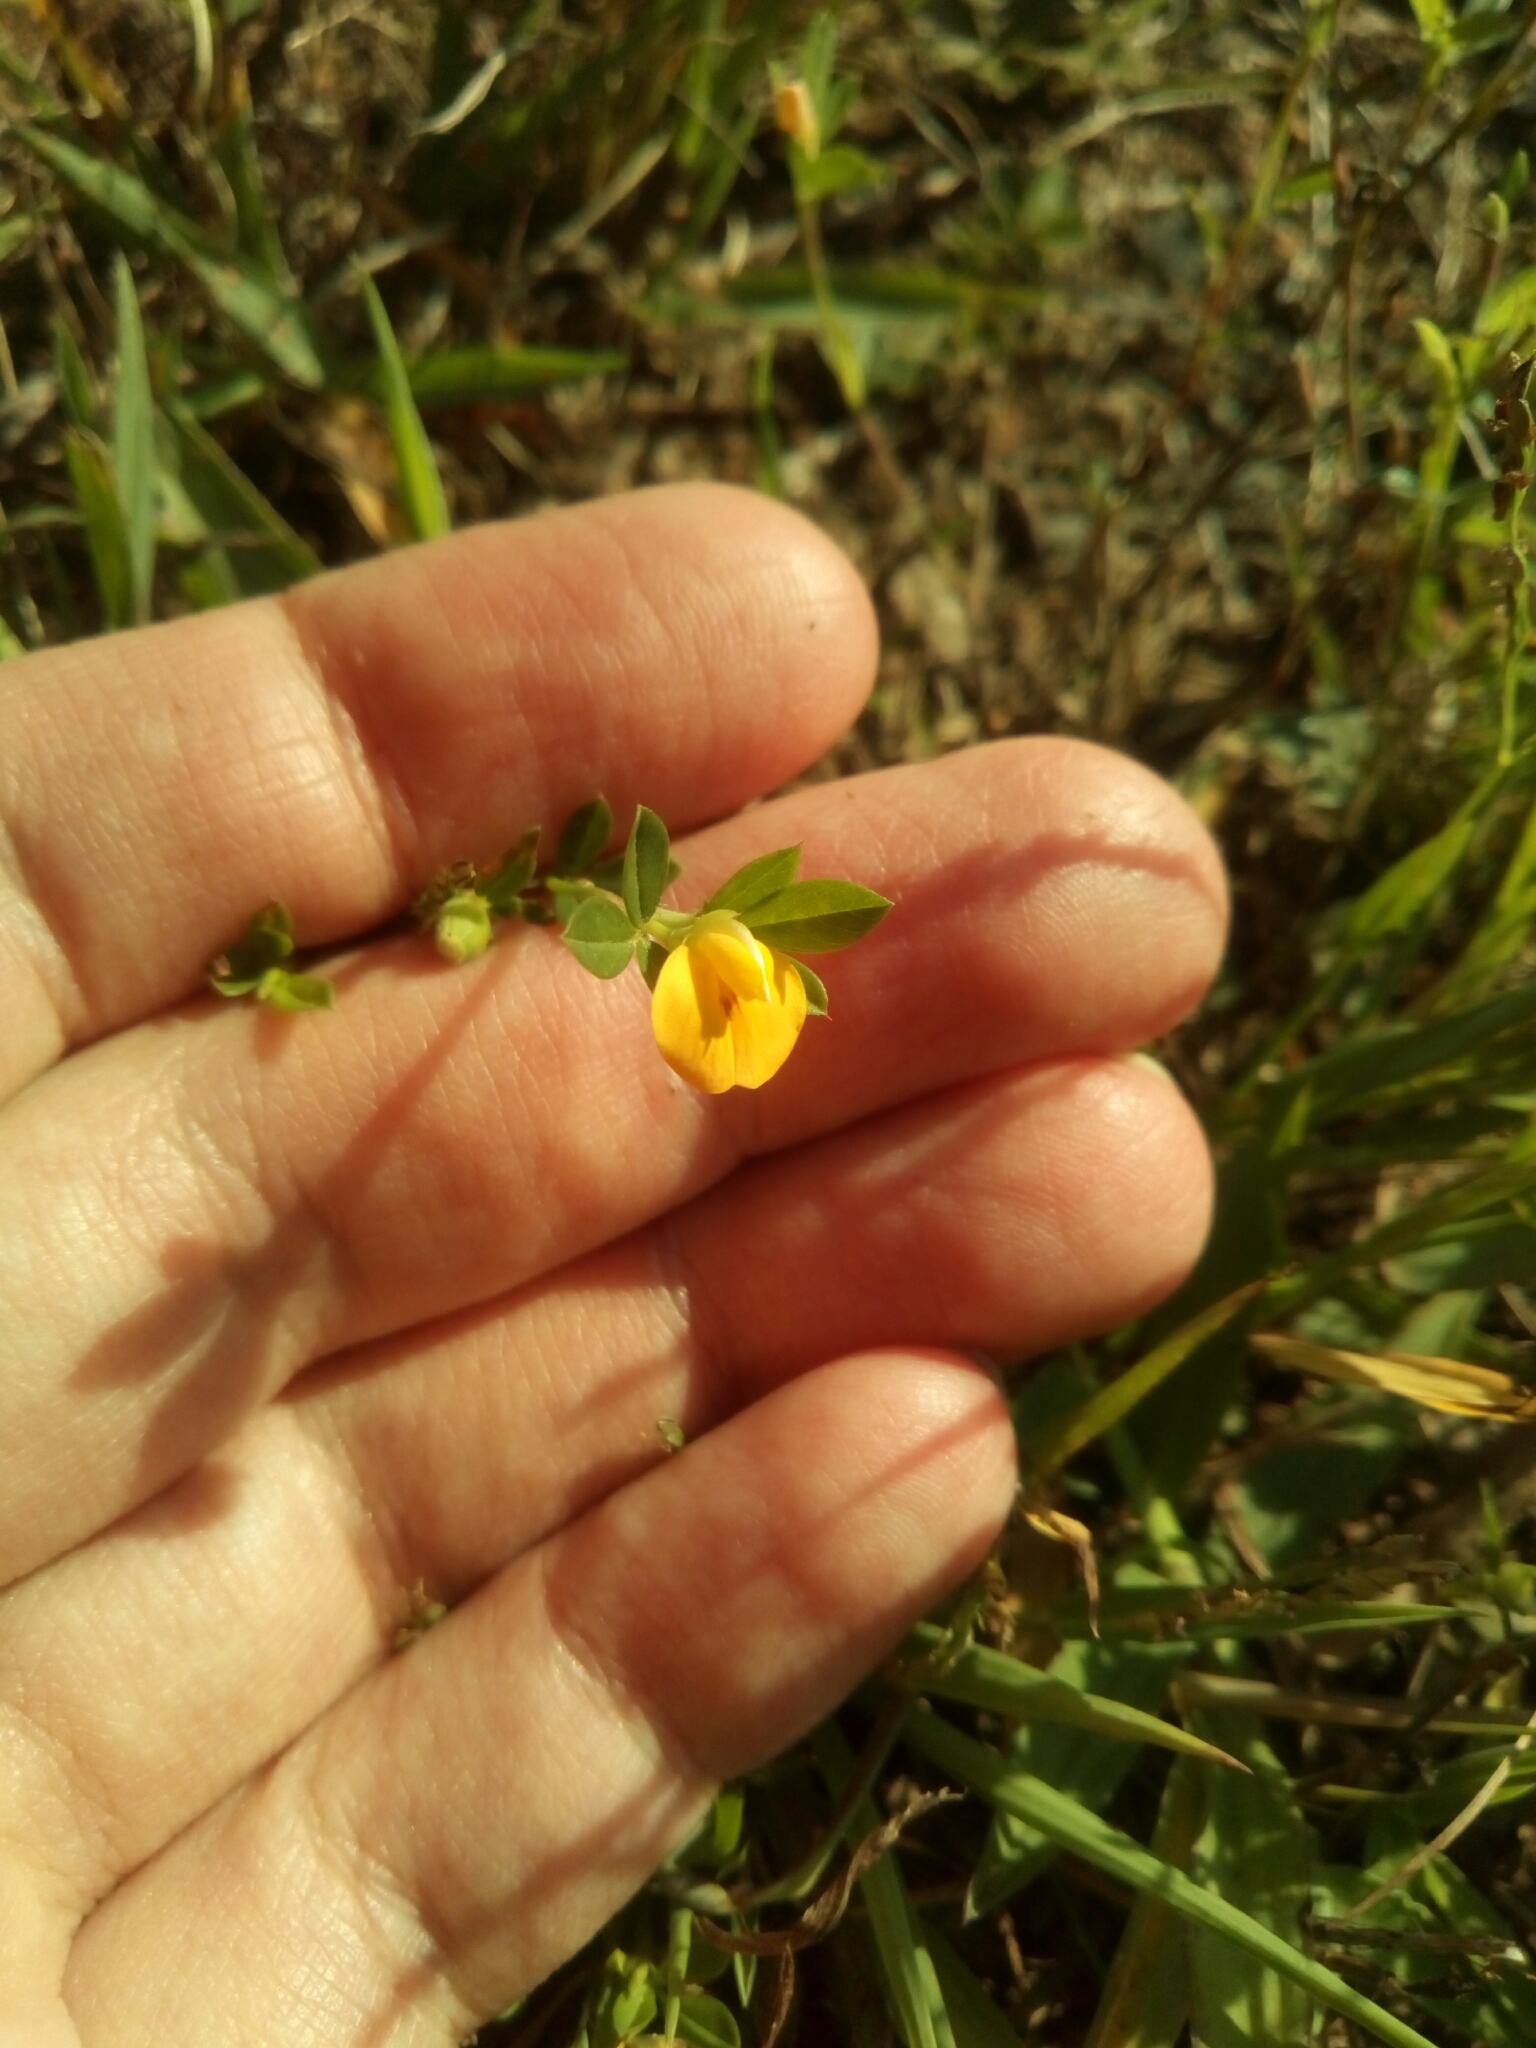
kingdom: Plantae
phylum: Tracheophyta
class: Magnoliopsida
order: Fabales
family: Fabaceae
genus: Stylosanthes
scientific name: Stylosanthes biflora
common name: Two-flower pencil-flower
